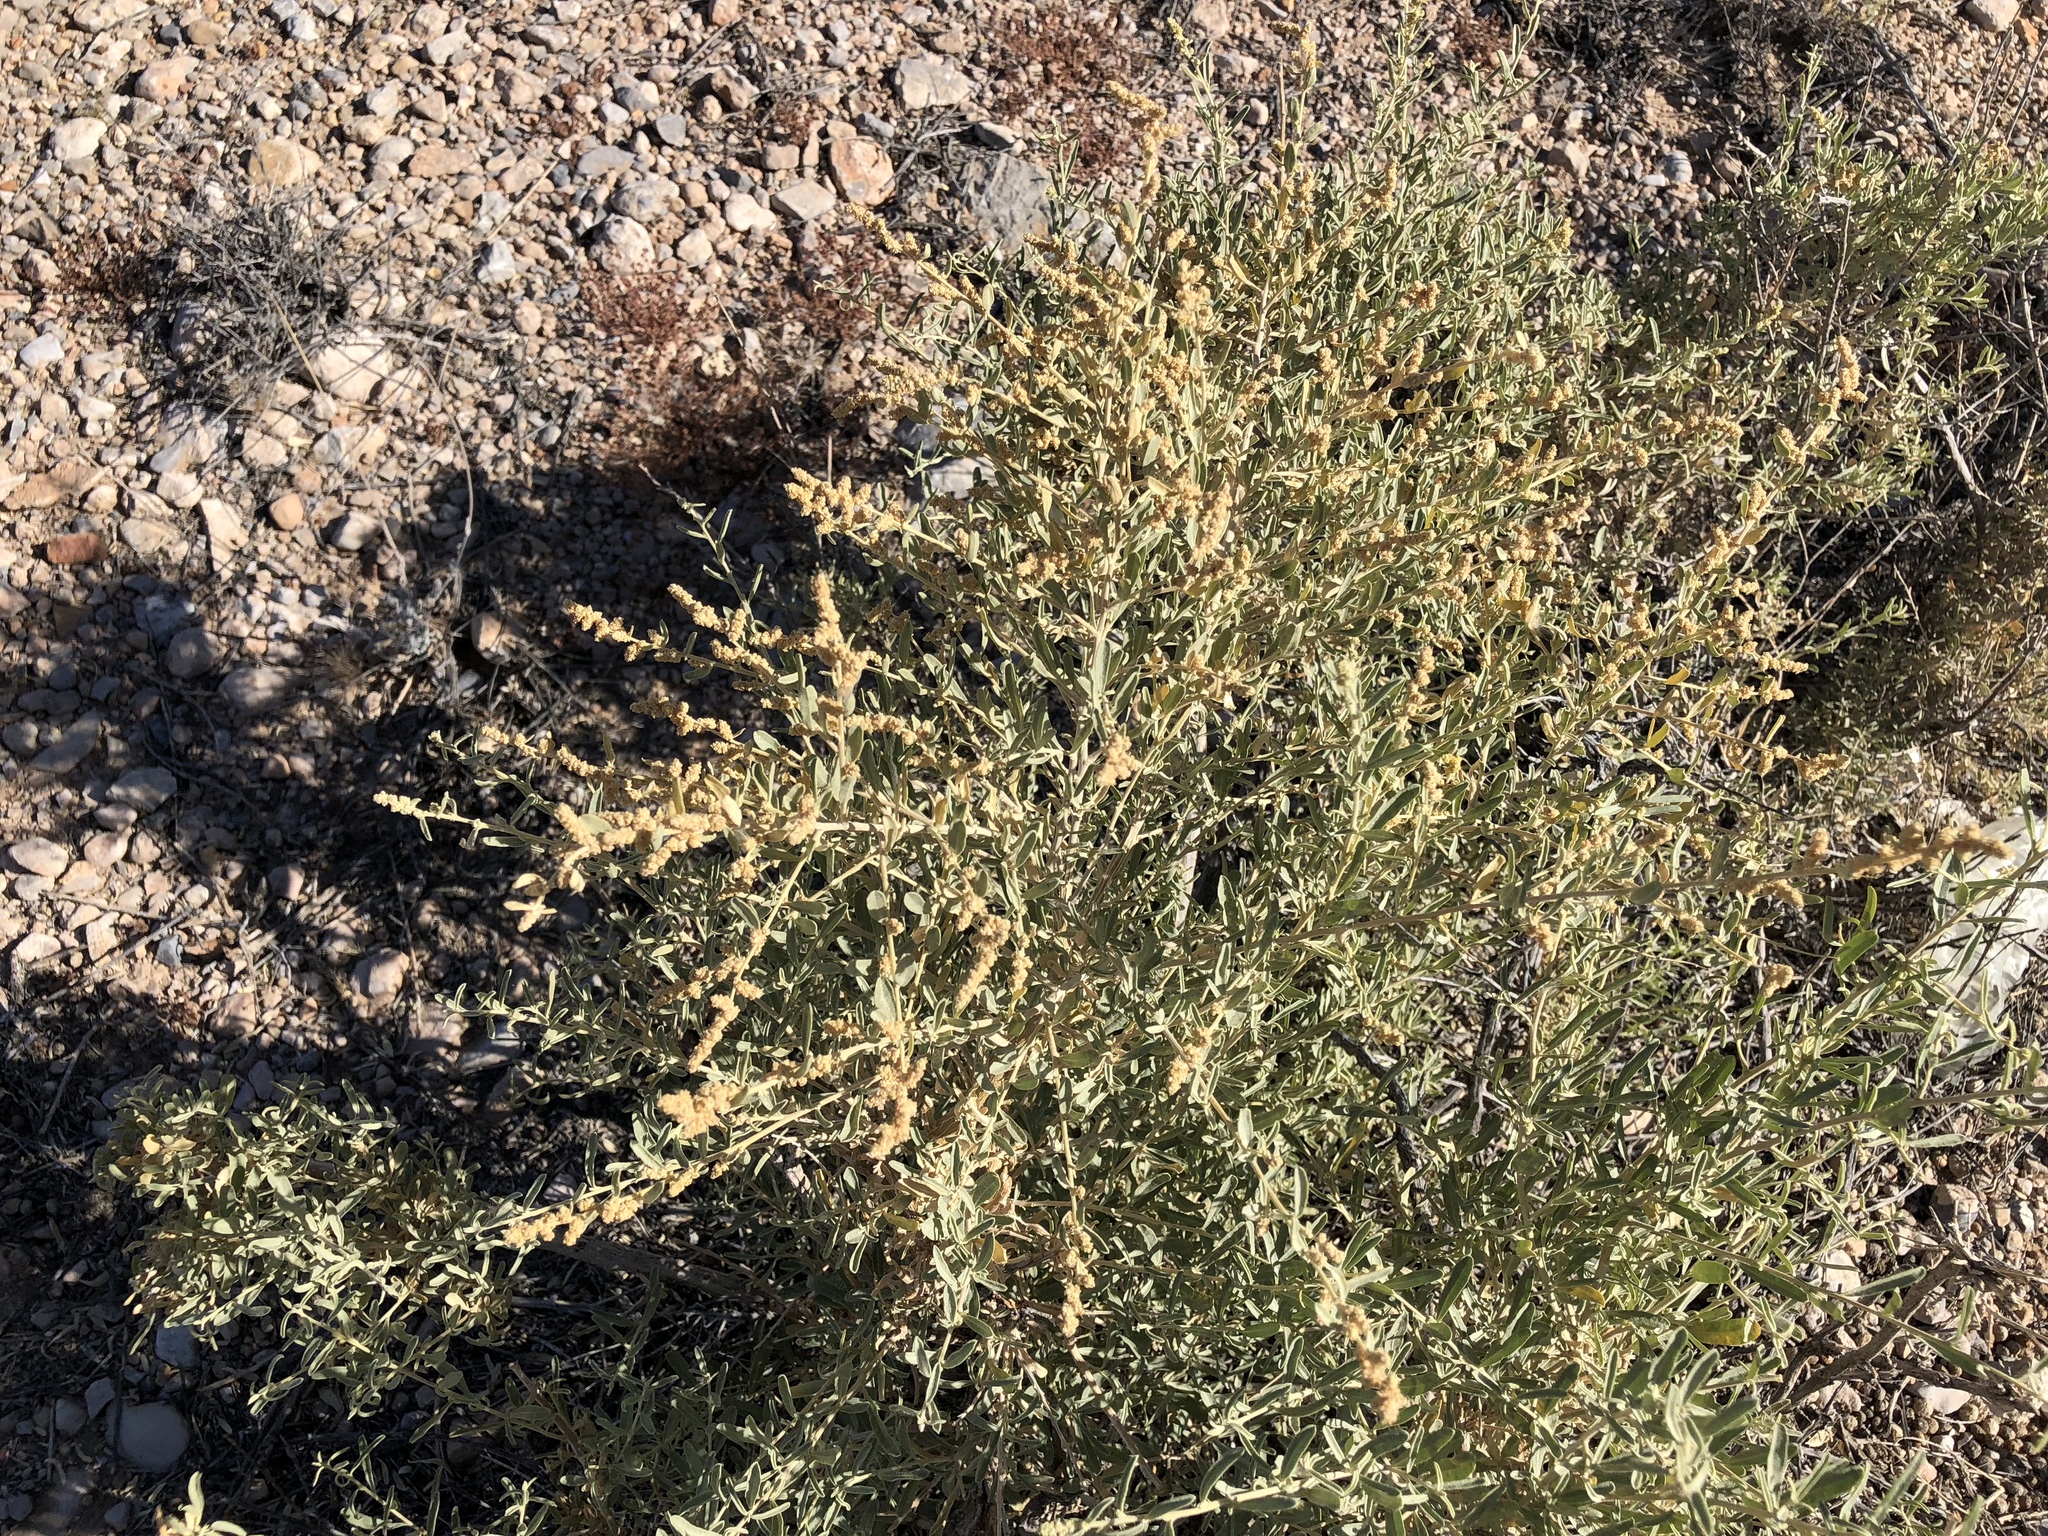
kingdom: Plantae
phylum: Tracheophyta
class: Magnoliopsida
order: Caryophyllales
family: Amaranthaceae
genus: Atriplex
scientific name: Atriplex canescens
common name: Four-wing saltbush
